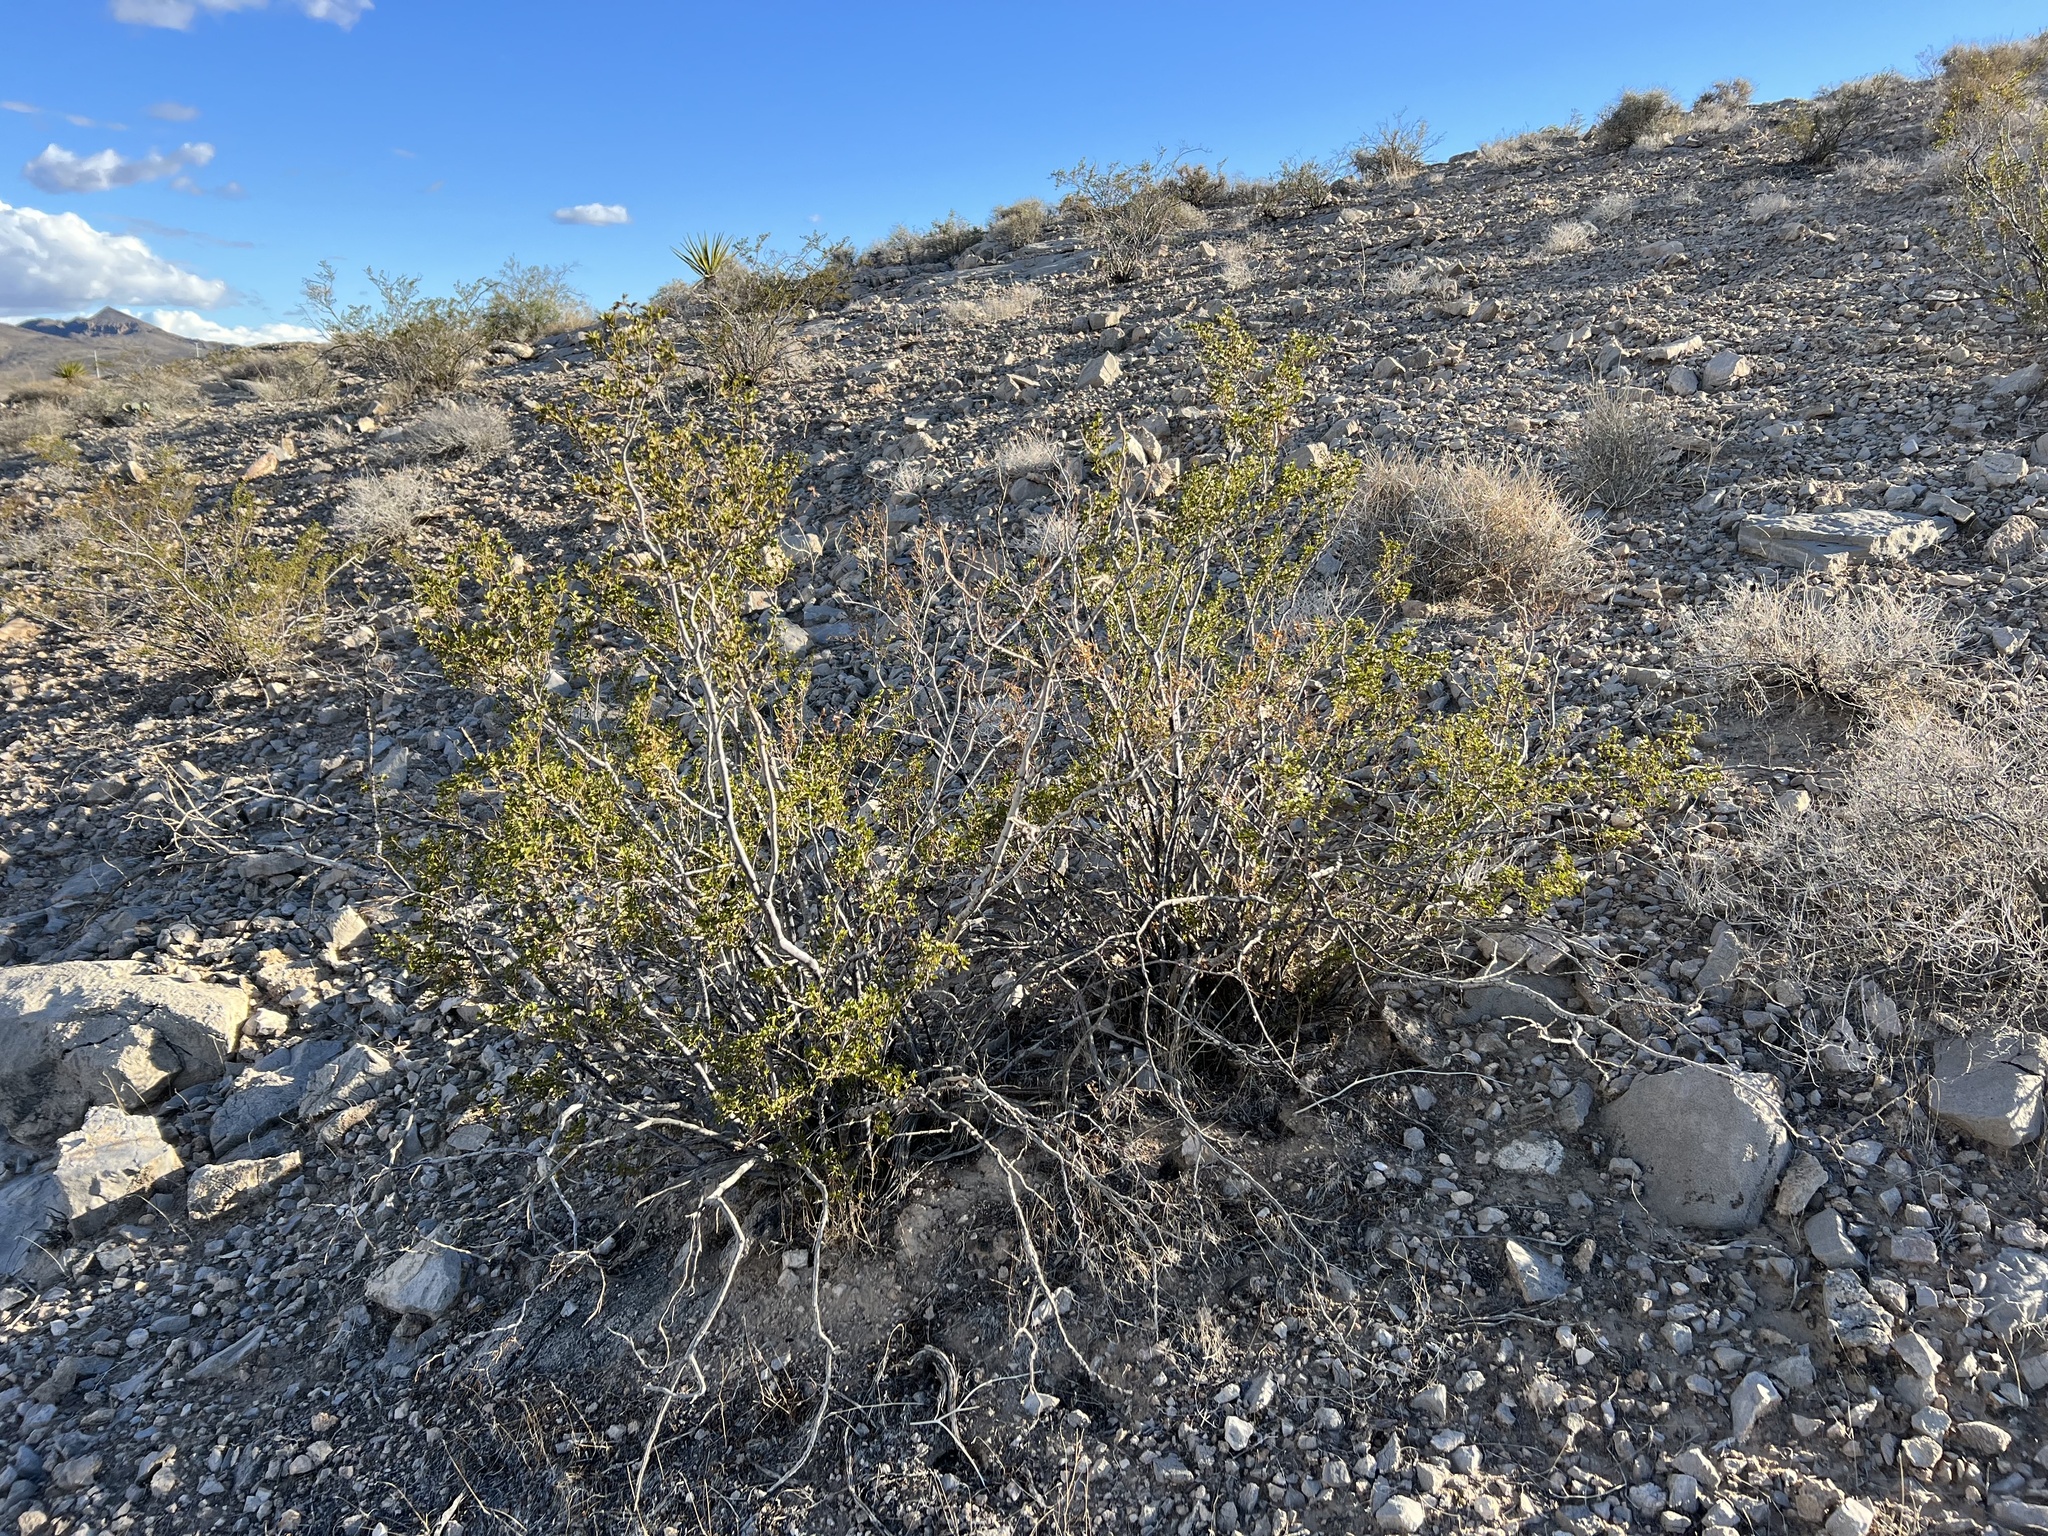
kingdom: Plantae
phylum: Tracheophyta
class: Magnoliopsida
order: Zygophyllales
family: Zygophyllaceae
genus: Larrea
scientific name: Larrea tridentata
